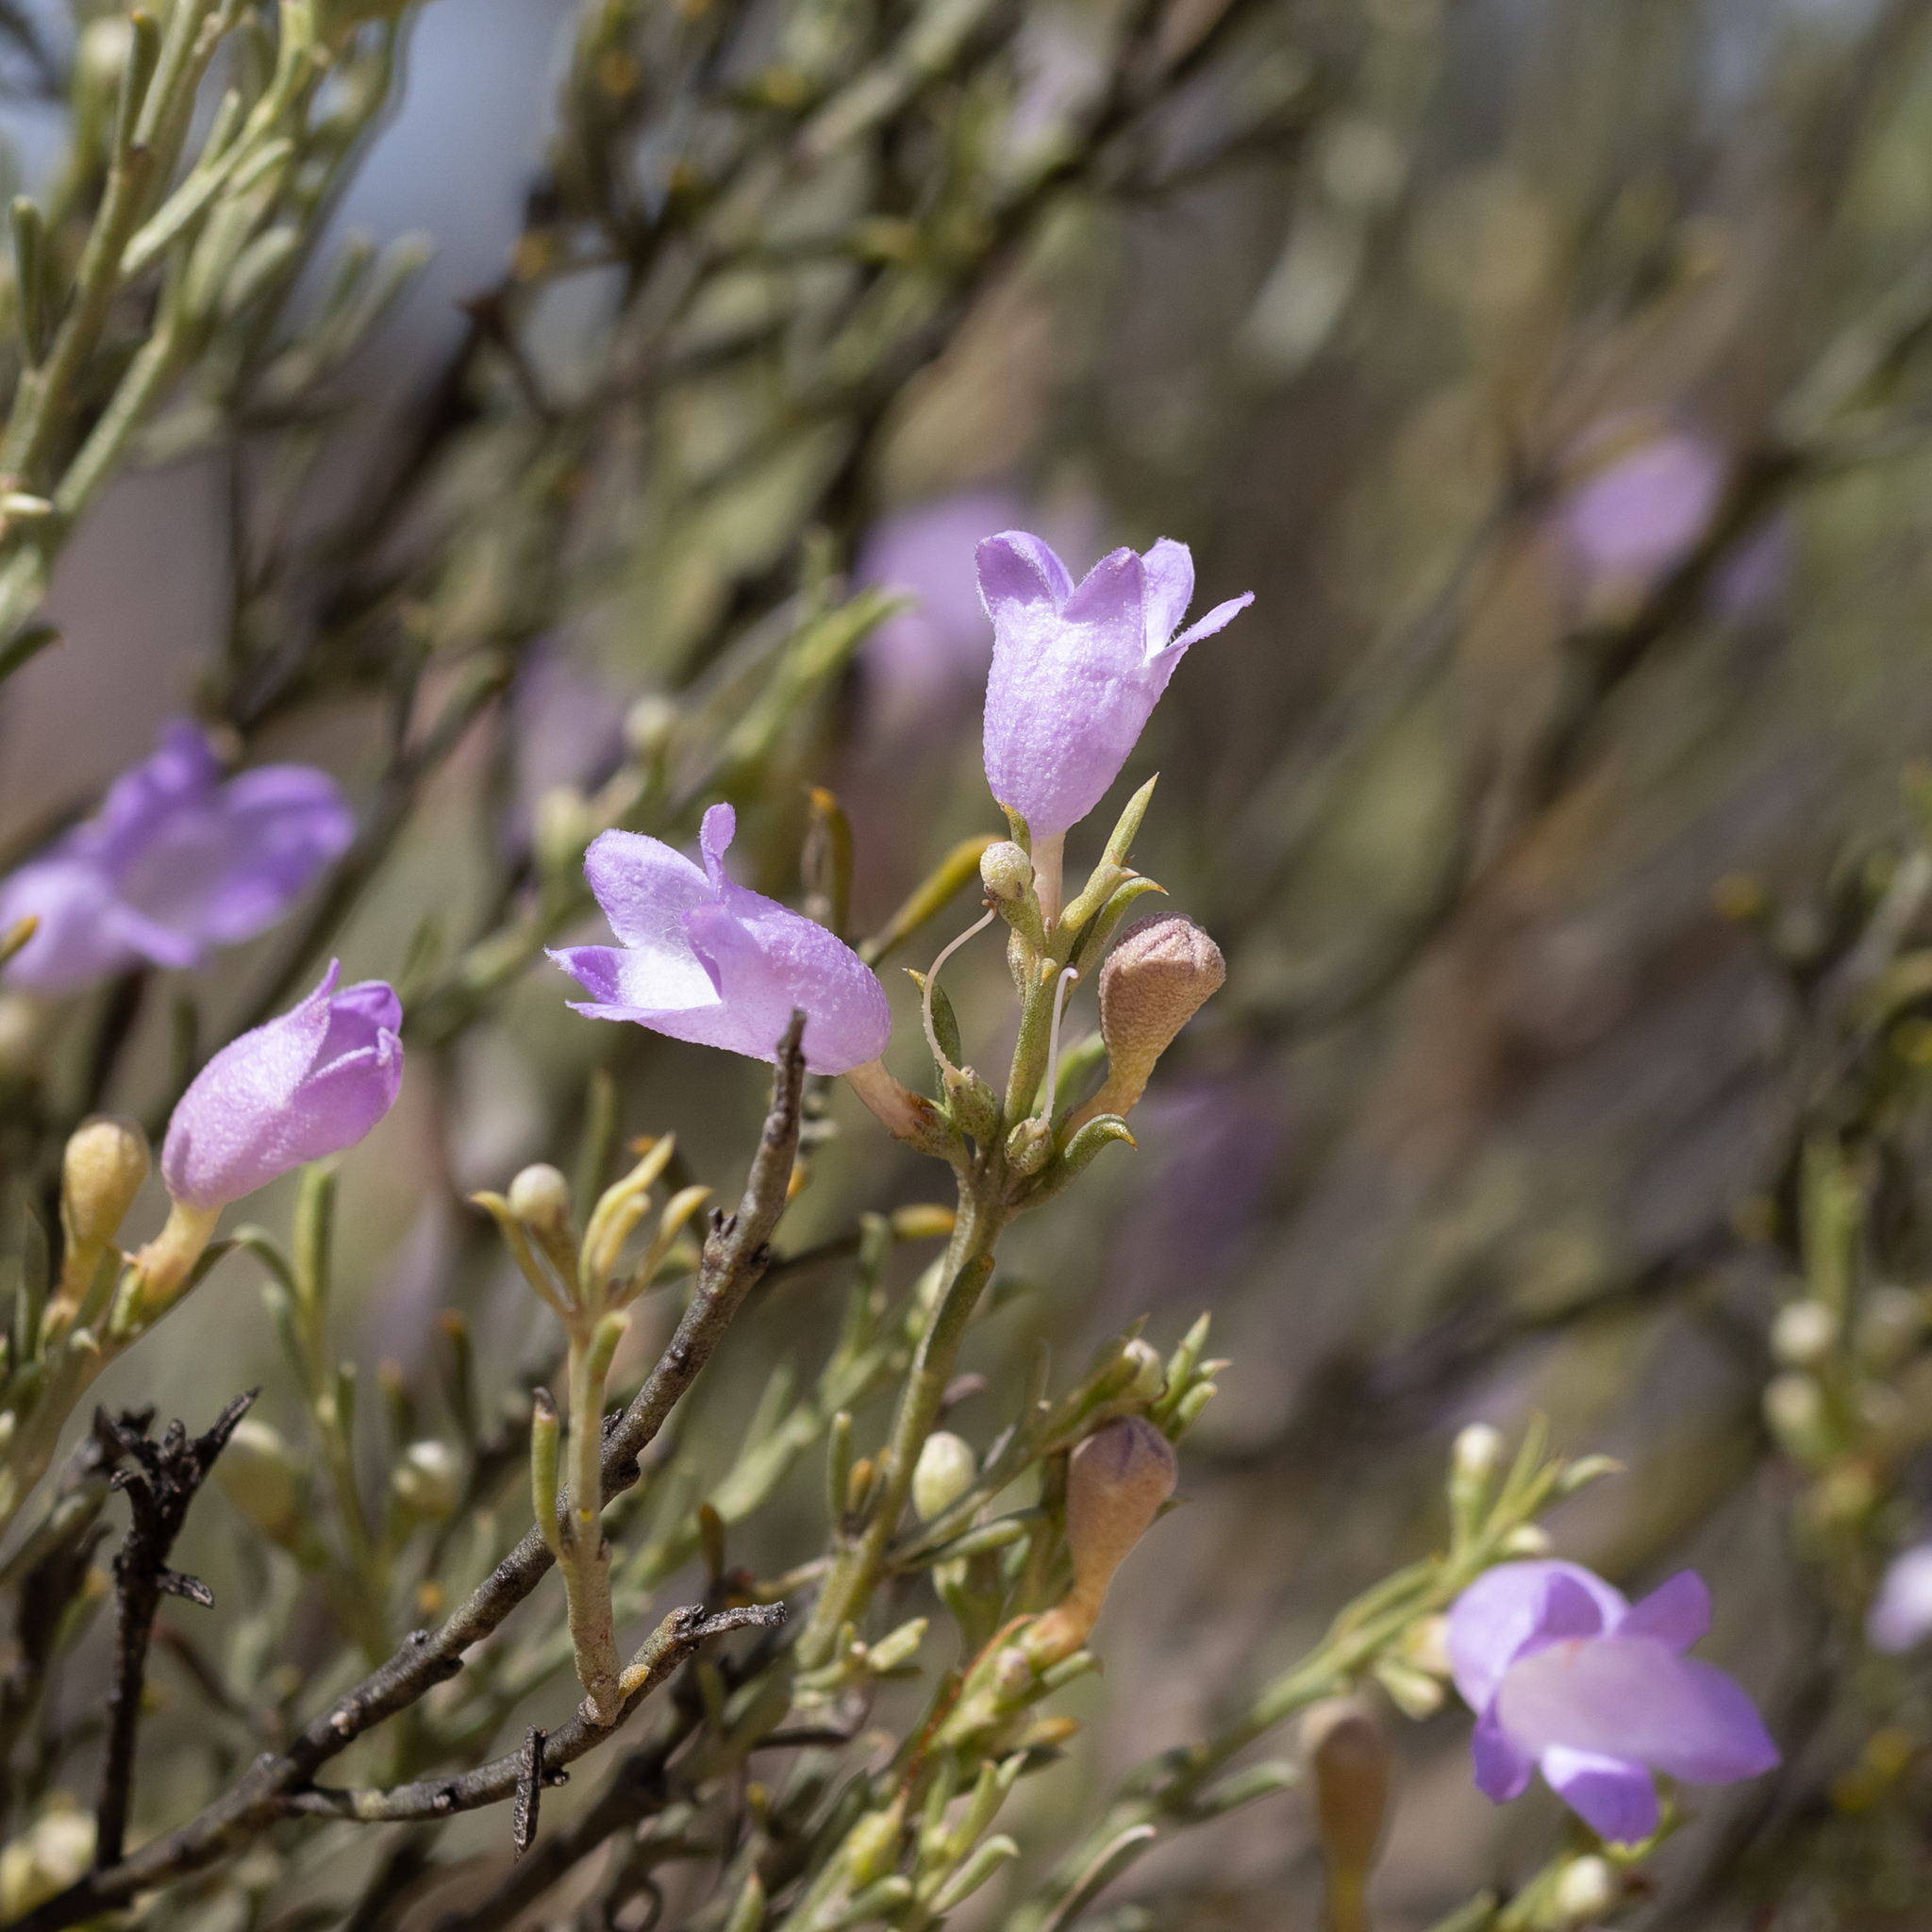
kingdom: Plantae
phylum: Tracheophyta
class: Magnoliopsida
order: Lamiales
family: Scrophulariaceae
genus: Eremophila
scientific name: Eremophila scoparia
